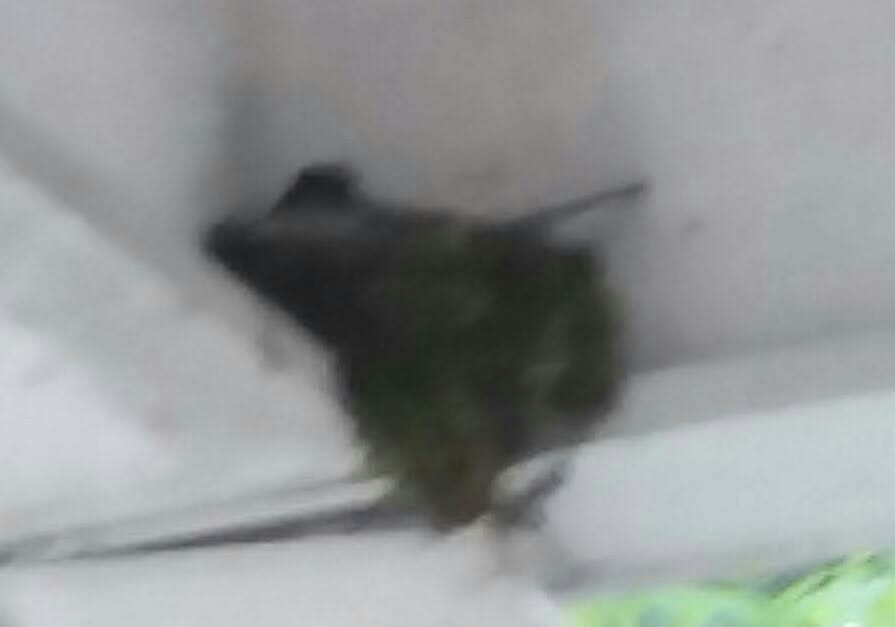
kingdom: Animalia
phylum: Chordata
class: Aves
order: Passeriformes
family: Tyrannidae
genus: Sayornis
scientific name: Sayornis phoebe
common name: Eastern phoebe
